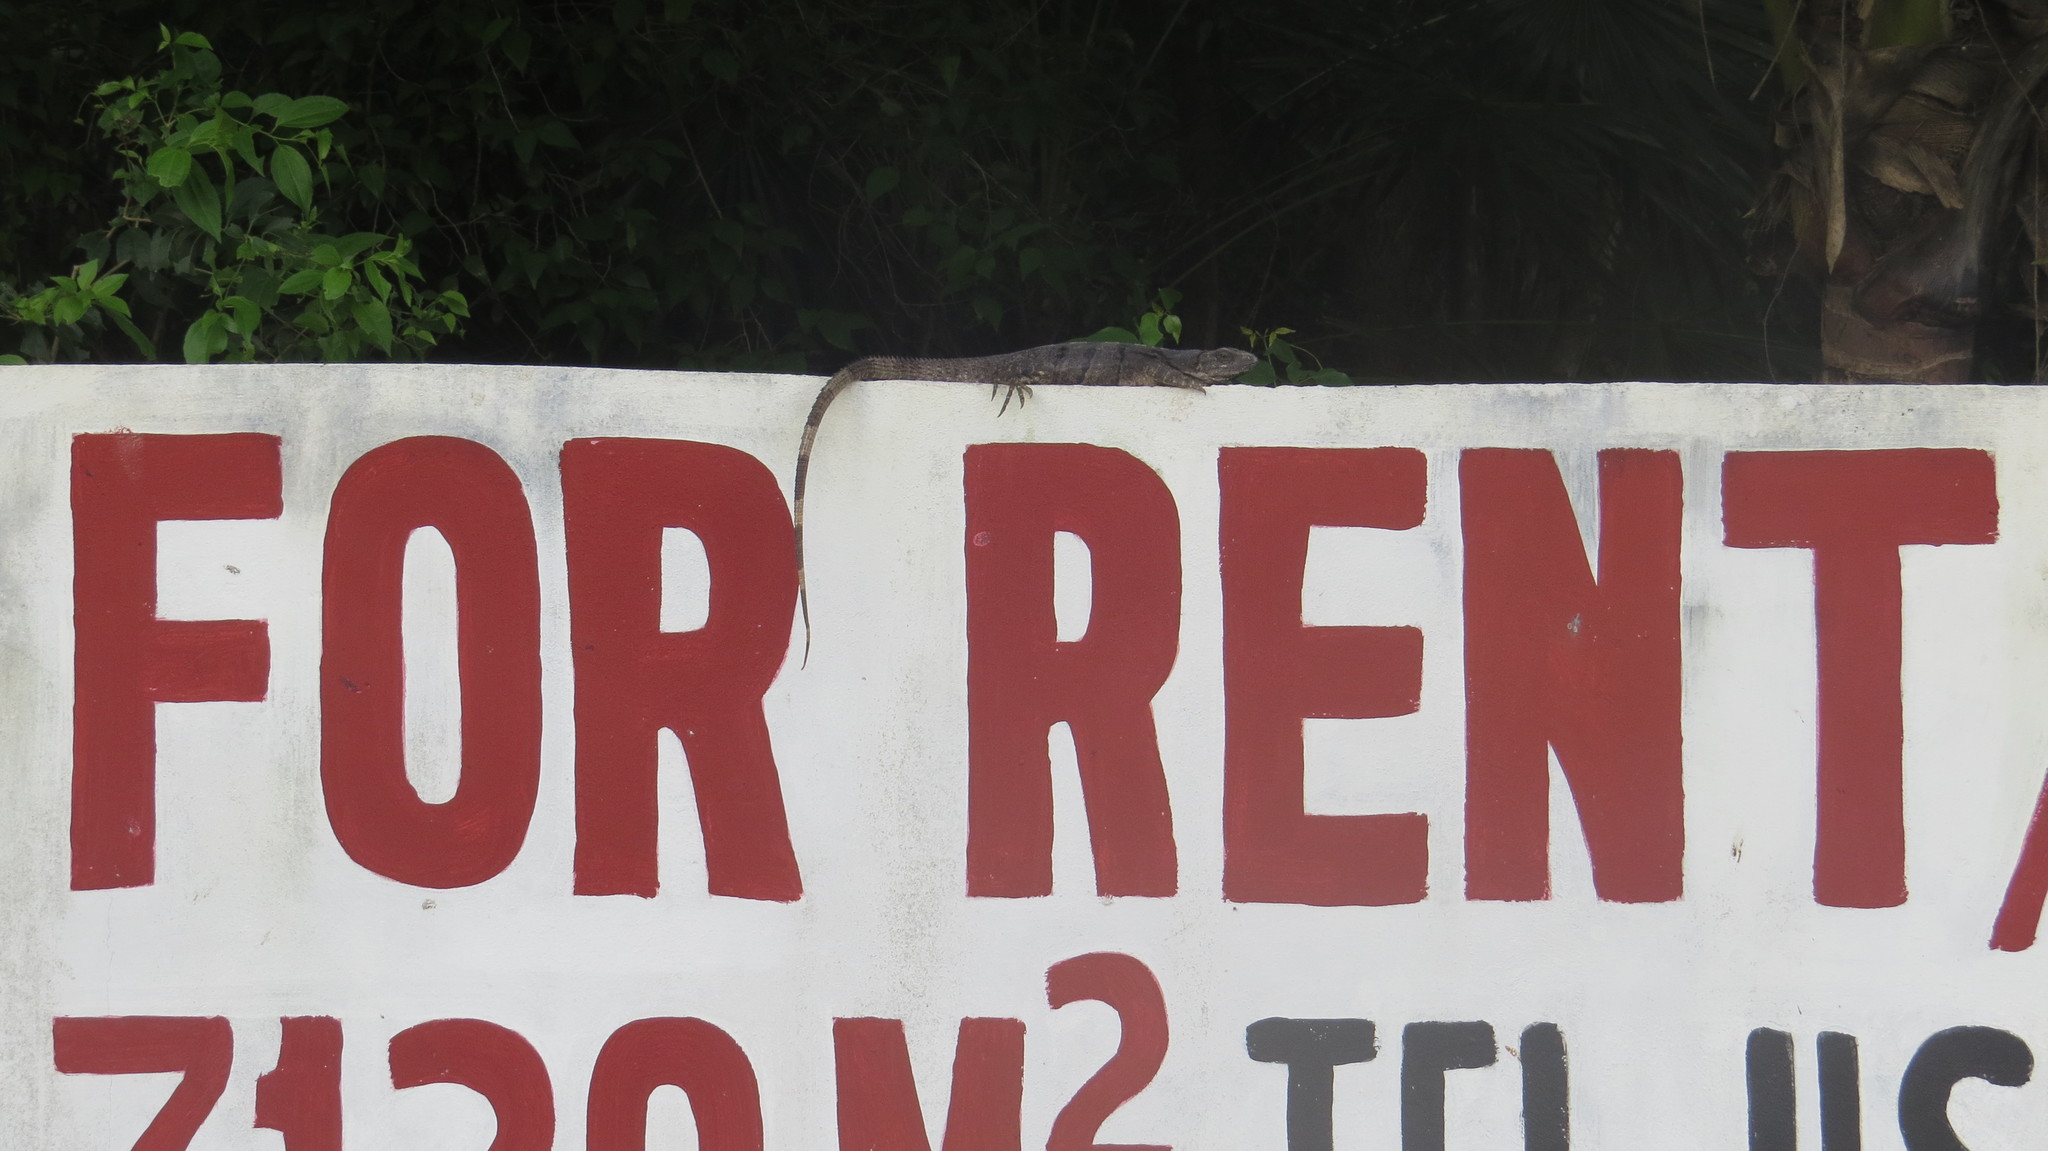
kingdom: Animalia
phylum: Chordata
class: Squamata
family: Iguanidae
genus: Ctenosaura
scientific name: Ctenosaura similis
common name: Black spiny-tailed iguana
